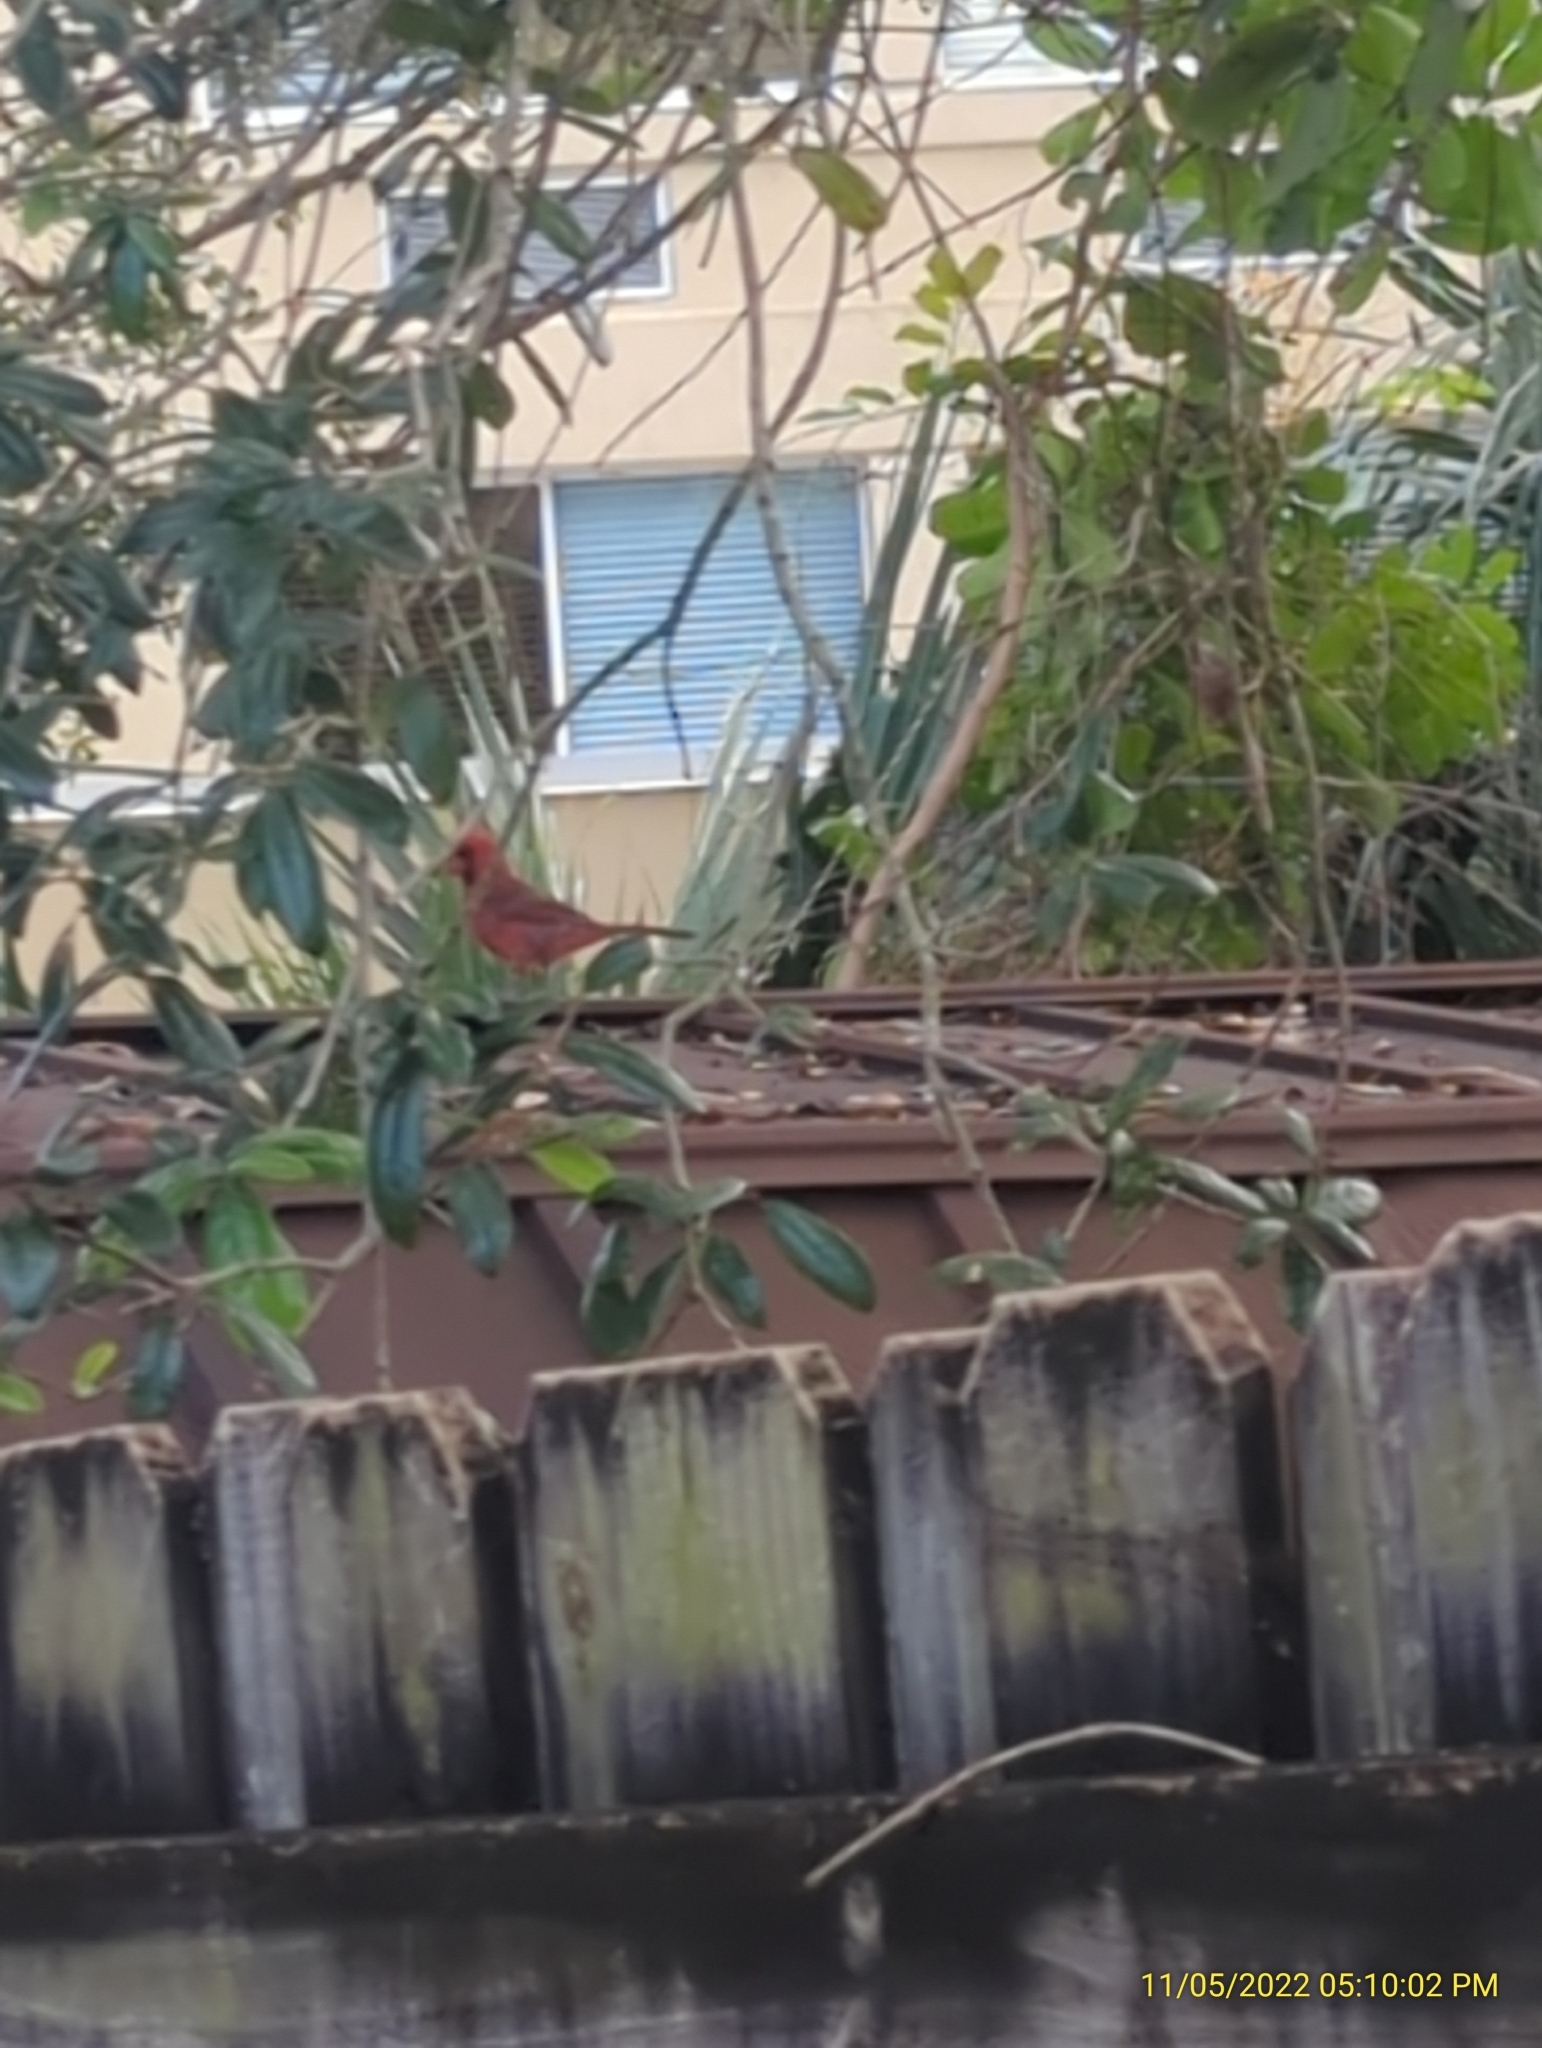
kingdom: Animalia
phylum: Chordata
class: Aves
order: Passeriformes
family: Cardinalidae
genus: Cardinalis
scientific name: Cardinalis cardinalis
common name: Northern cardinal
